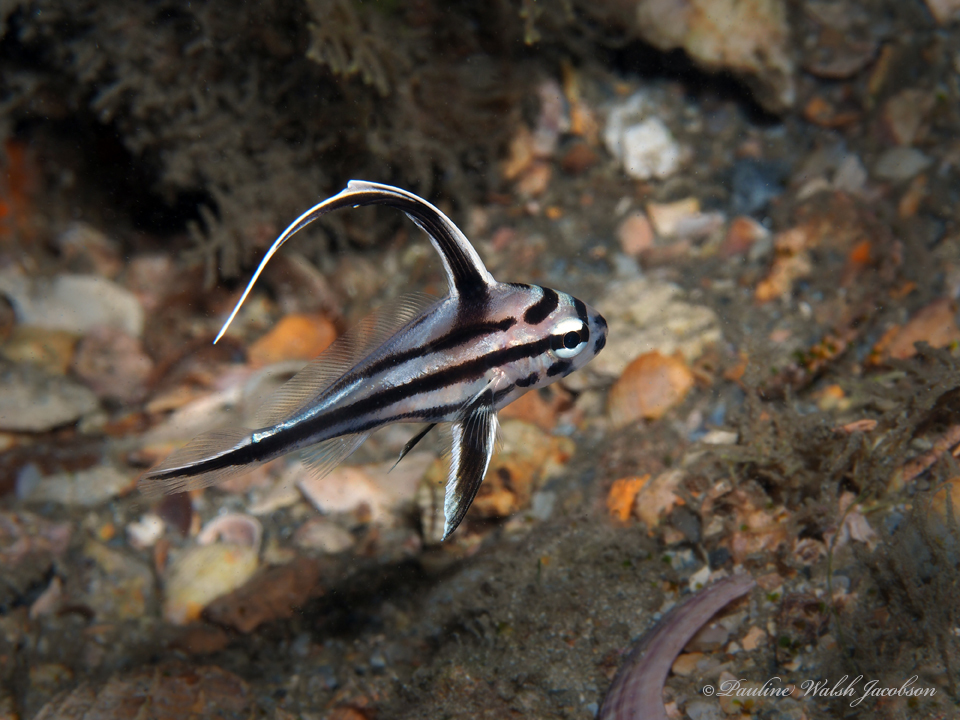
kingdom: Animalia
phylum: Chordata
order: Perciformes
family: Sciaenidae
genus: Pareques
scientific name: Pareques acuminatus
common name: High-hat
